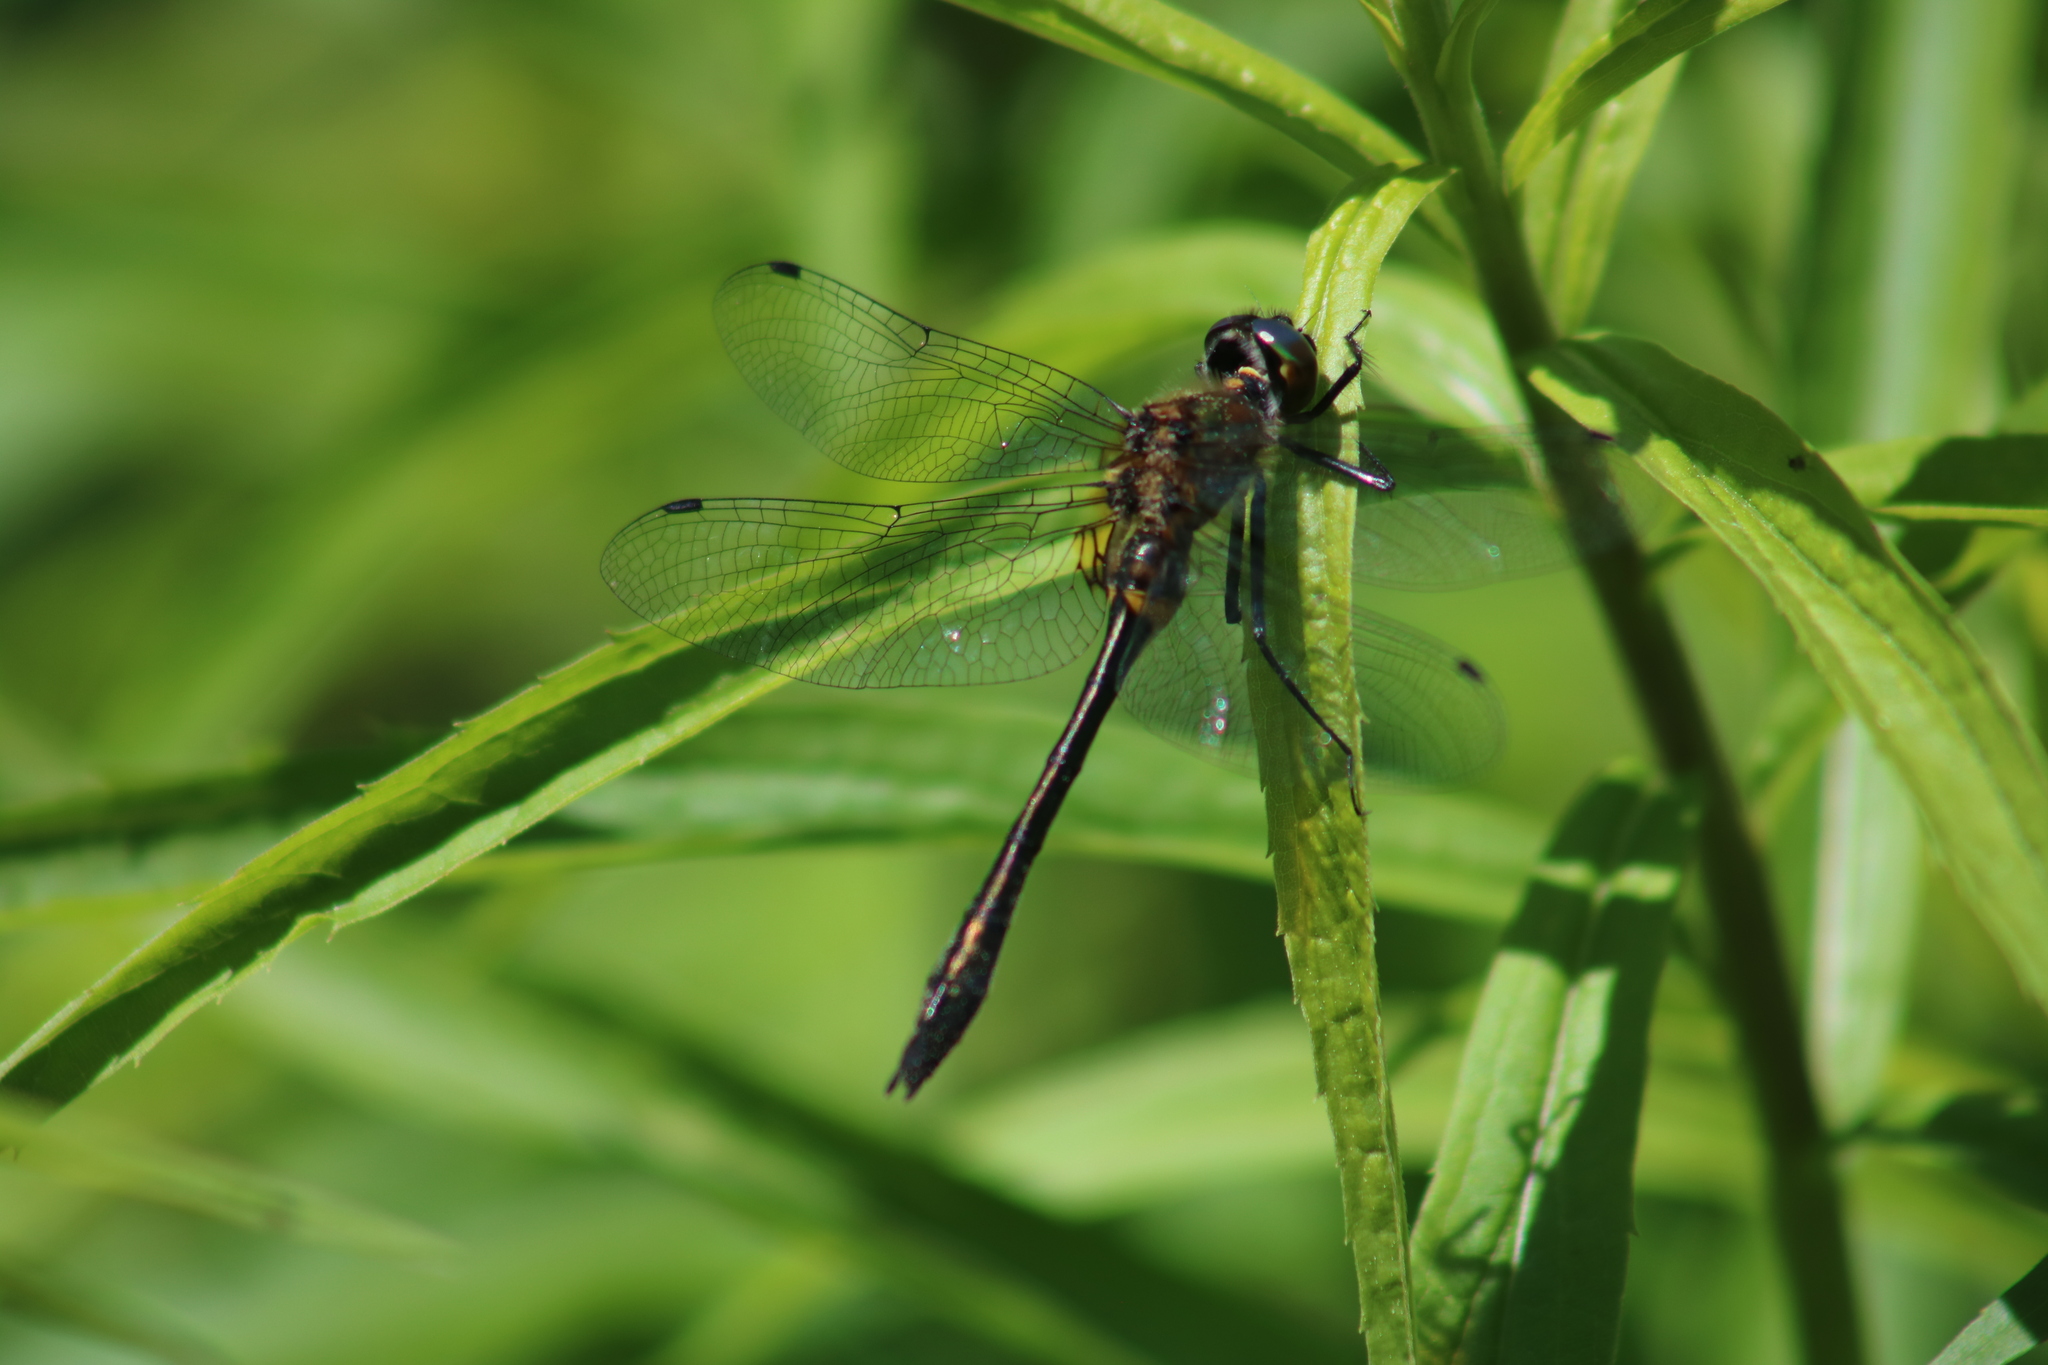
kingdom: Animalia
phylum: Arthropoda
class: Insecta
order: Odonata
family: Corduliidae
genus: Dorocordulia
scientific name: Dorocordulia libera
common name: Racket-tailed emerald
